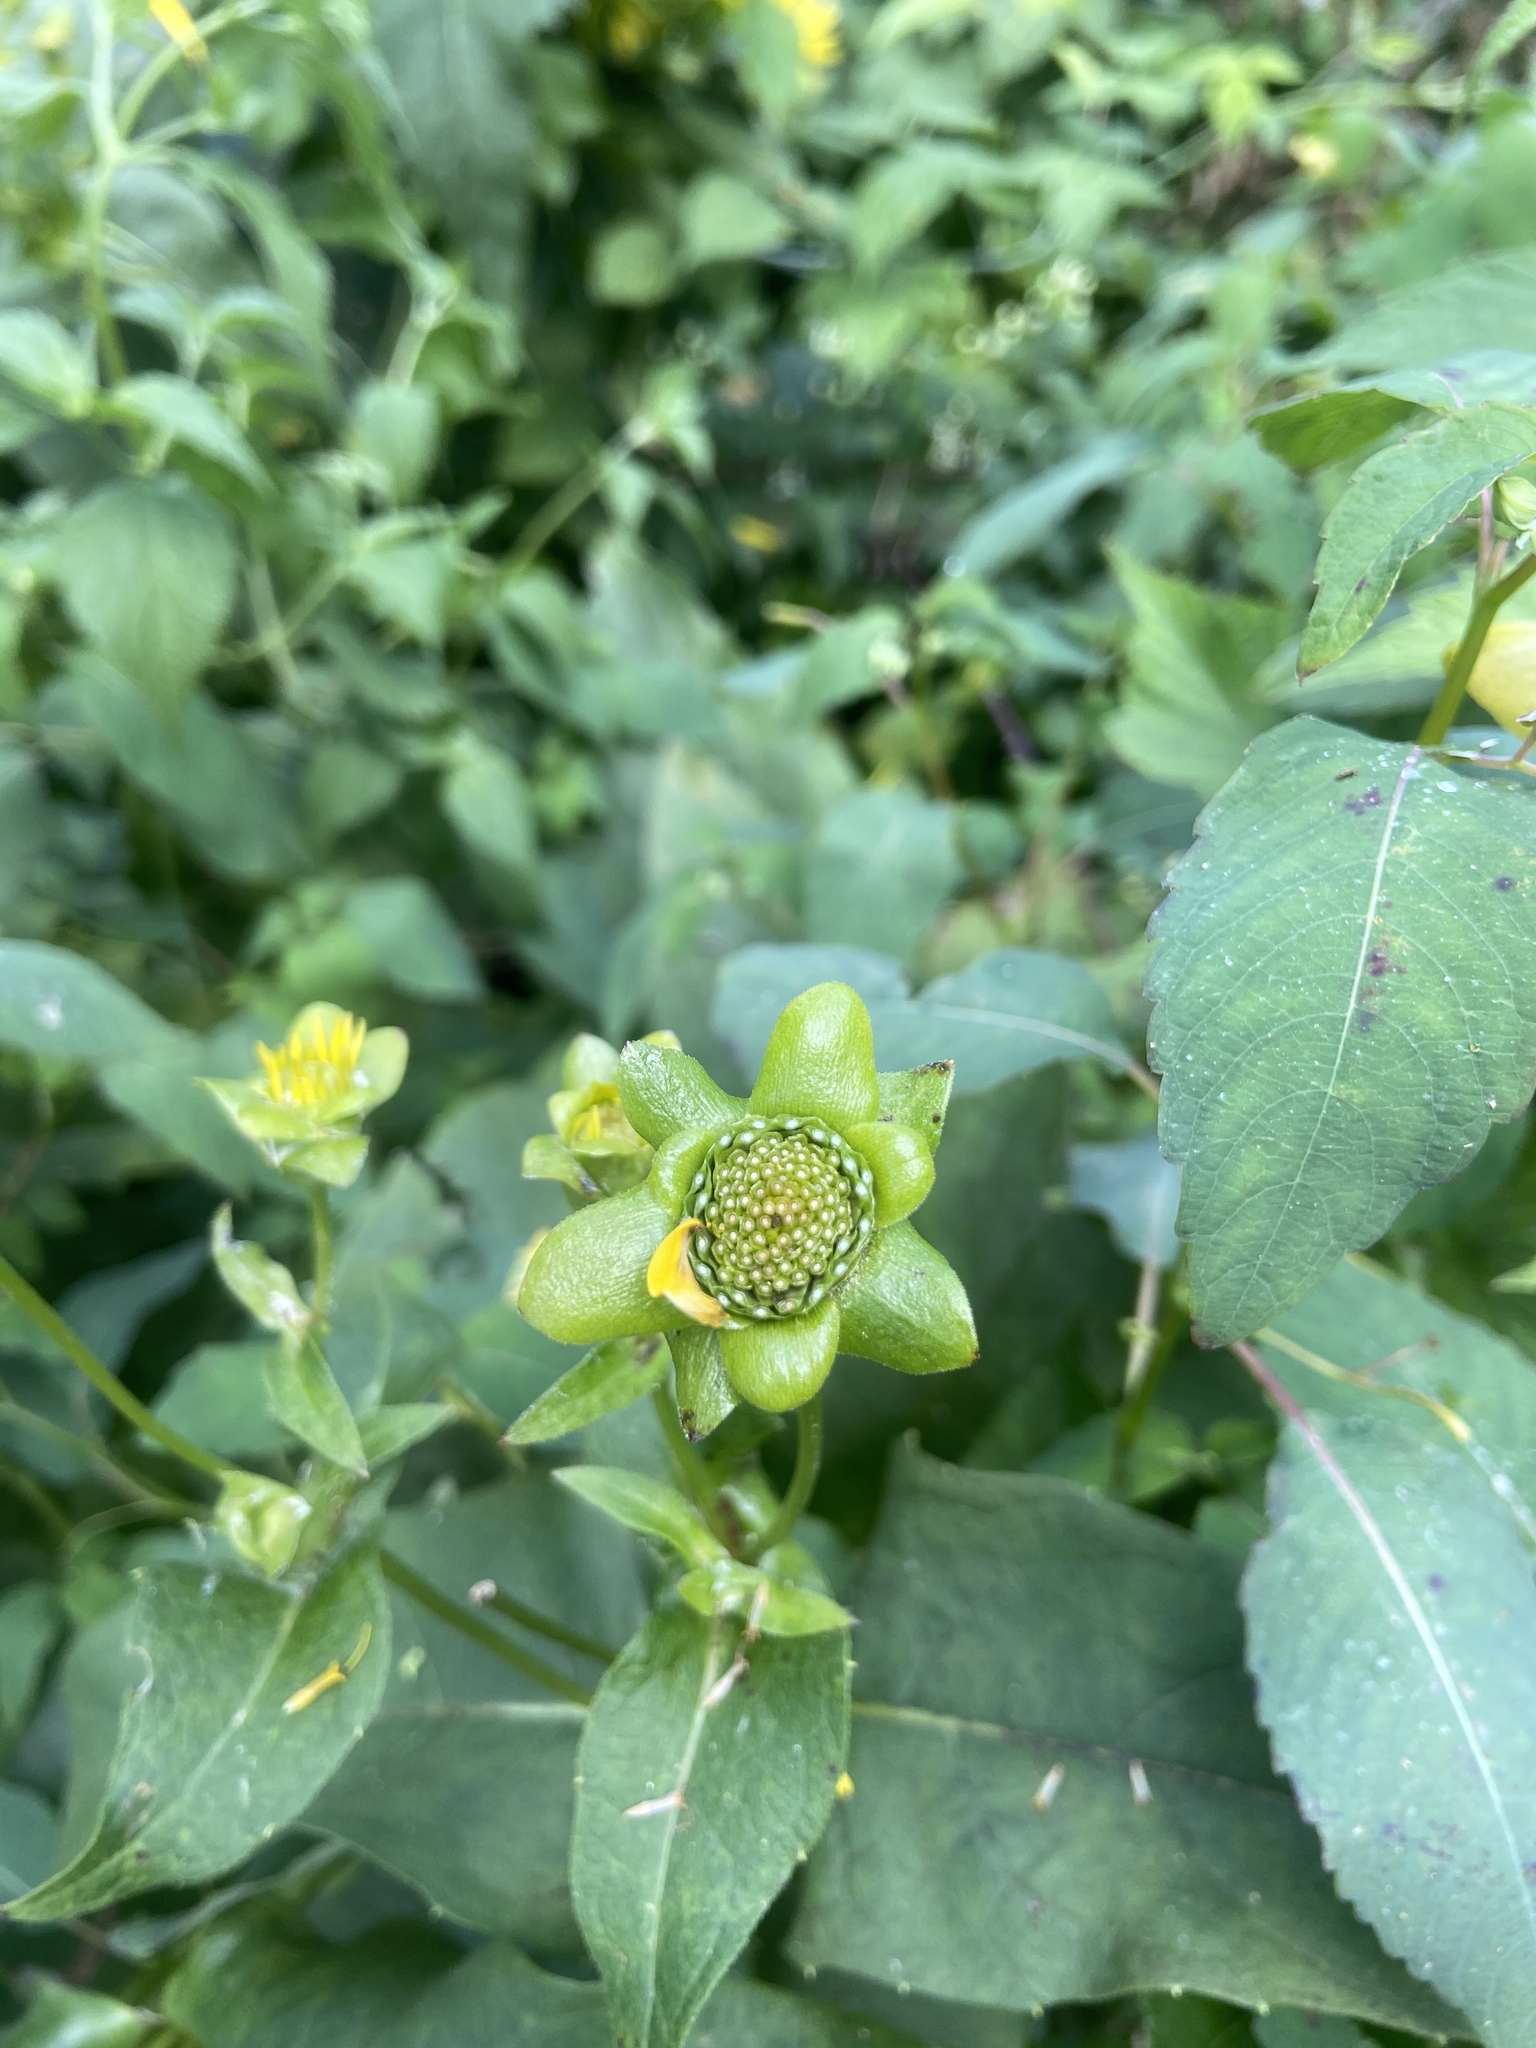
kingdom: Plantae
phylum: Tracheophyta
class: Magnoliopsida
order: Asterales
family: Asteraceae
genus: Silphium
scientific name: Silphium perfoliatum
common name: Cup-plant
